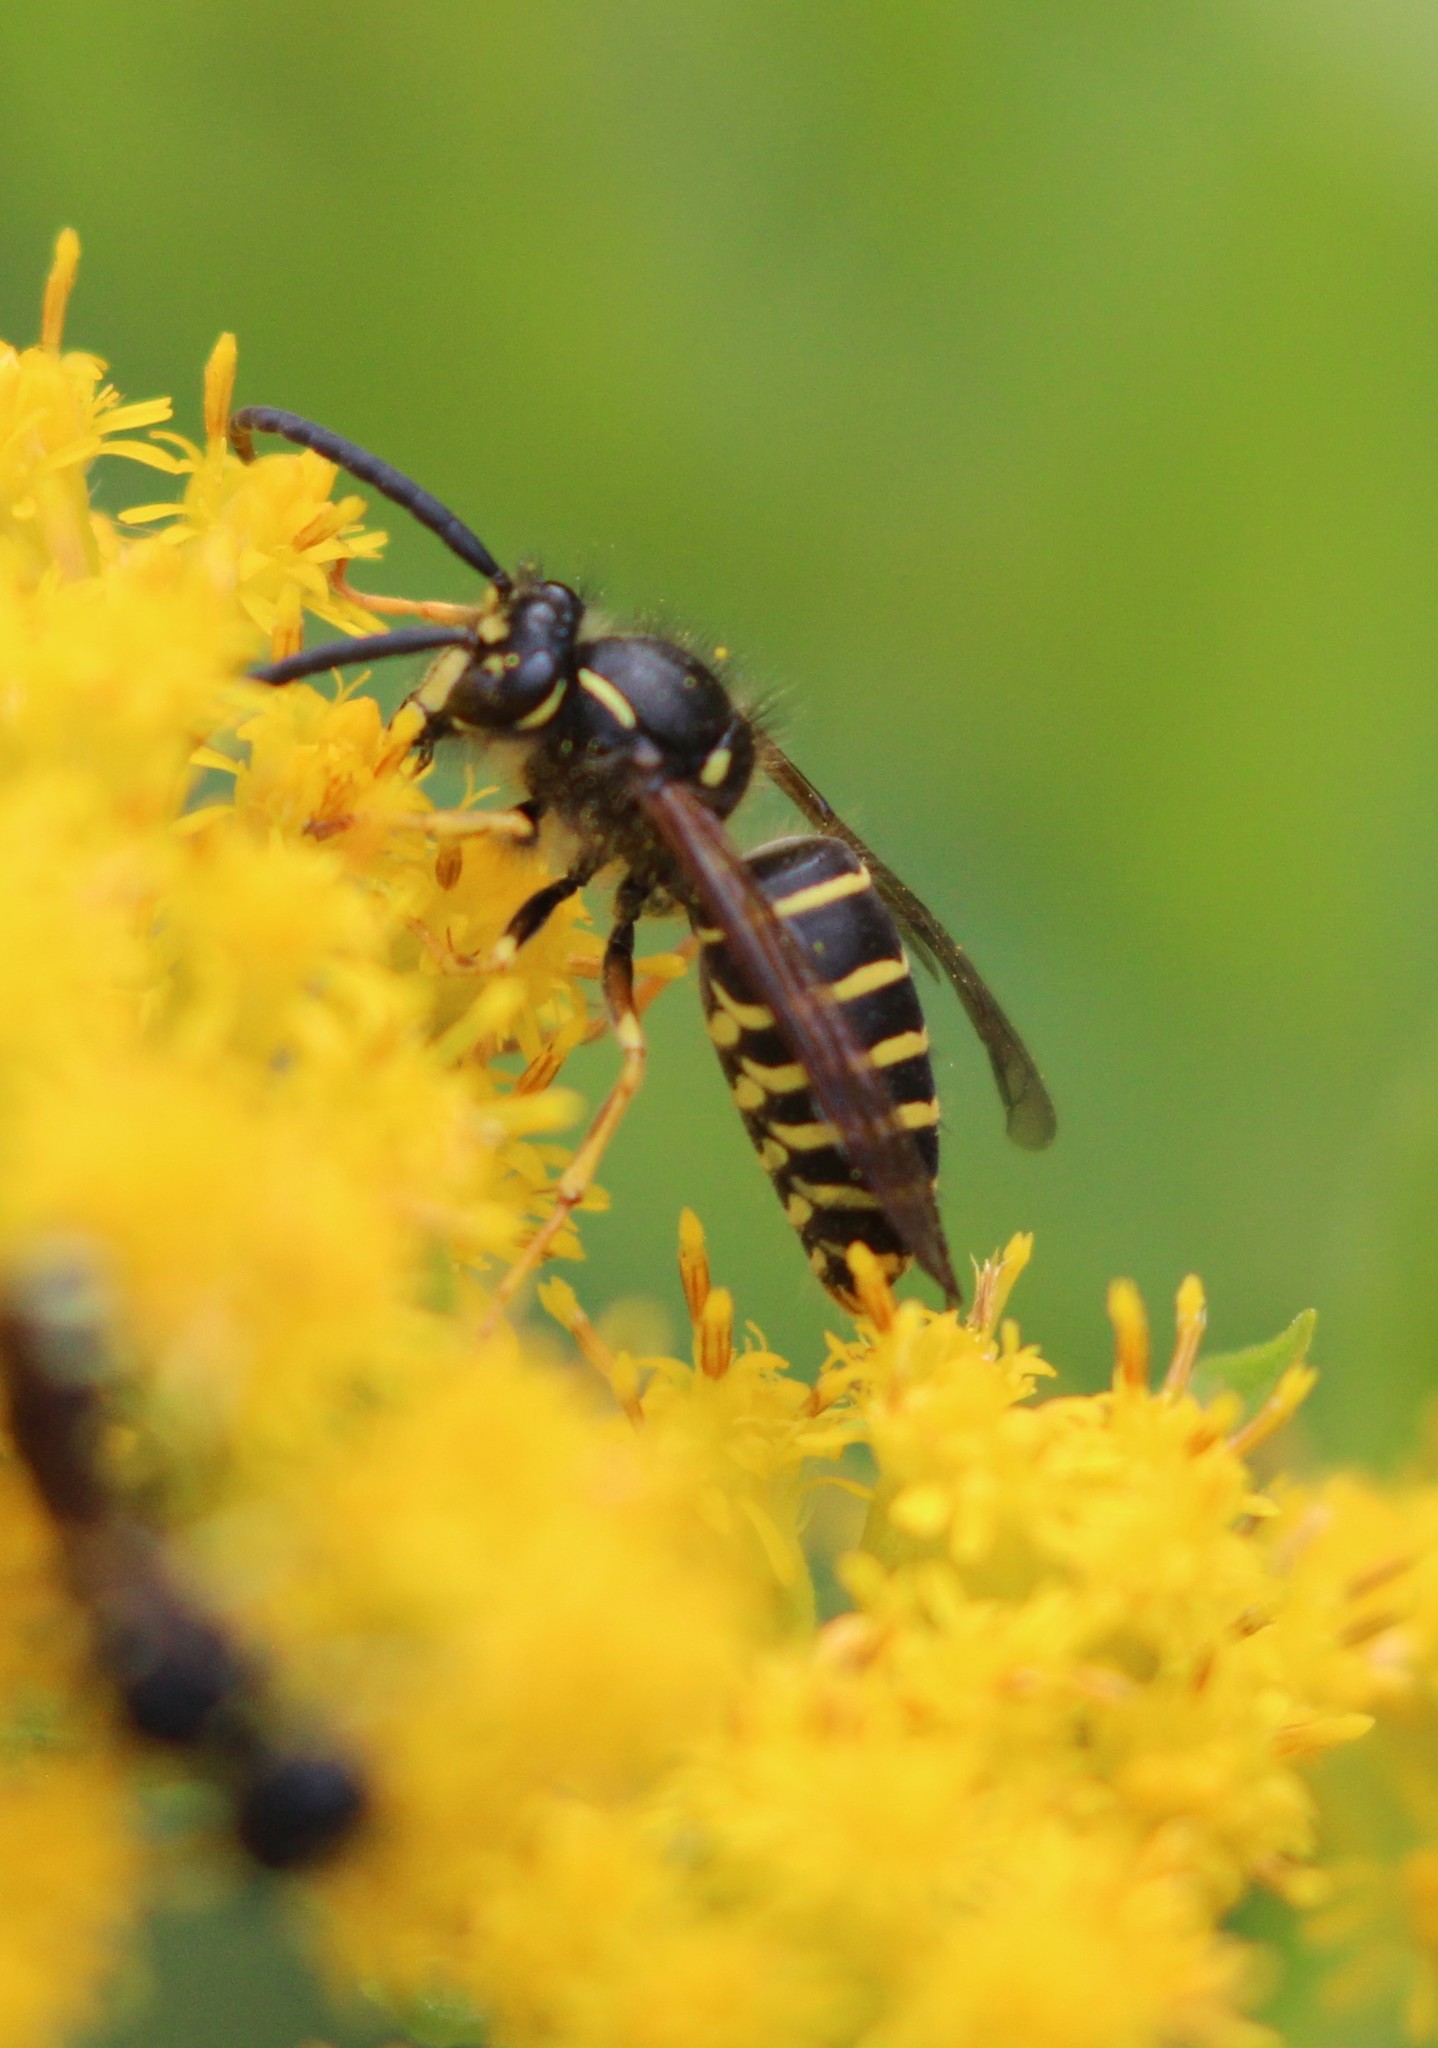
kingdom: Animalia
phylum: Arthropoda
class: Insecta
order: Hymenoptera
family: Vespidae
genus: Dolichovespula
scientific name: Dolichovespula norvegicoides
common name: Northern aerial yellowjacket
